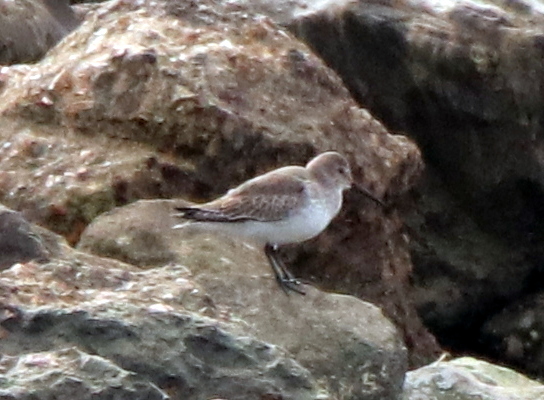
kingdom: Animalia
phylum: Chordata
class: Aves
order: Charadriiformes
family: Scolopacidae
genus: Calidris
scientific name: Calidris alpina
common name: Dunlin
